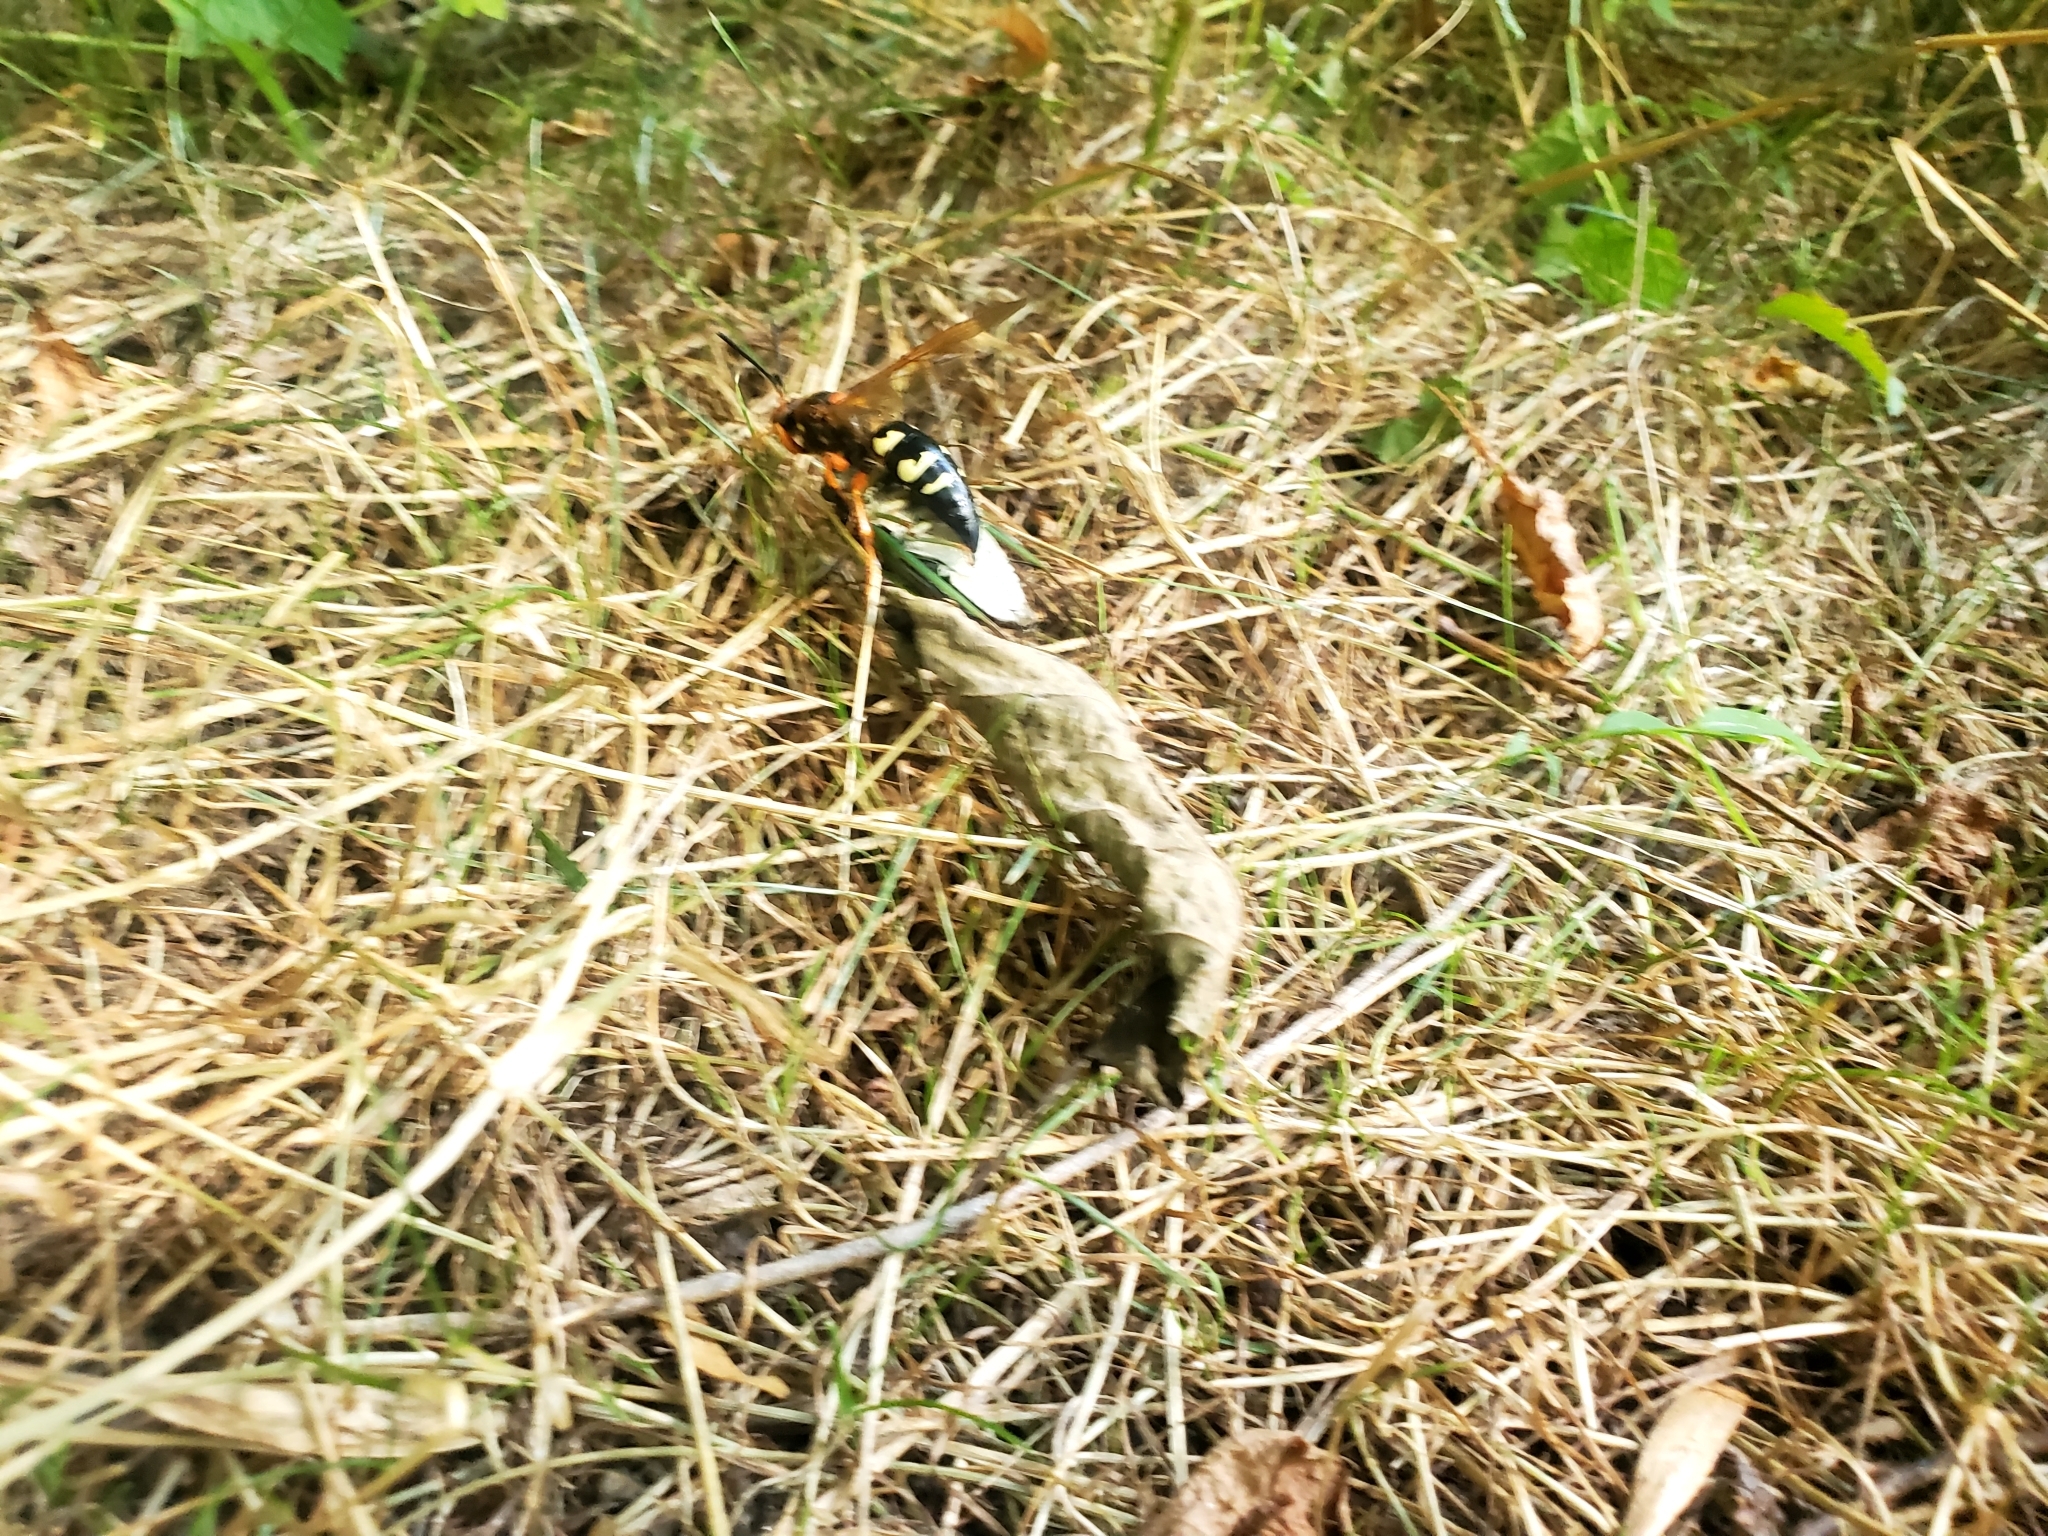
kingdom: Animalia
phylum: Arthropoda
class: Insecta
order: Hymenoptera
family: Crabronidae
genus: Sphecius
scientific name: Sphecius speciosus
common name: Cicada killer
